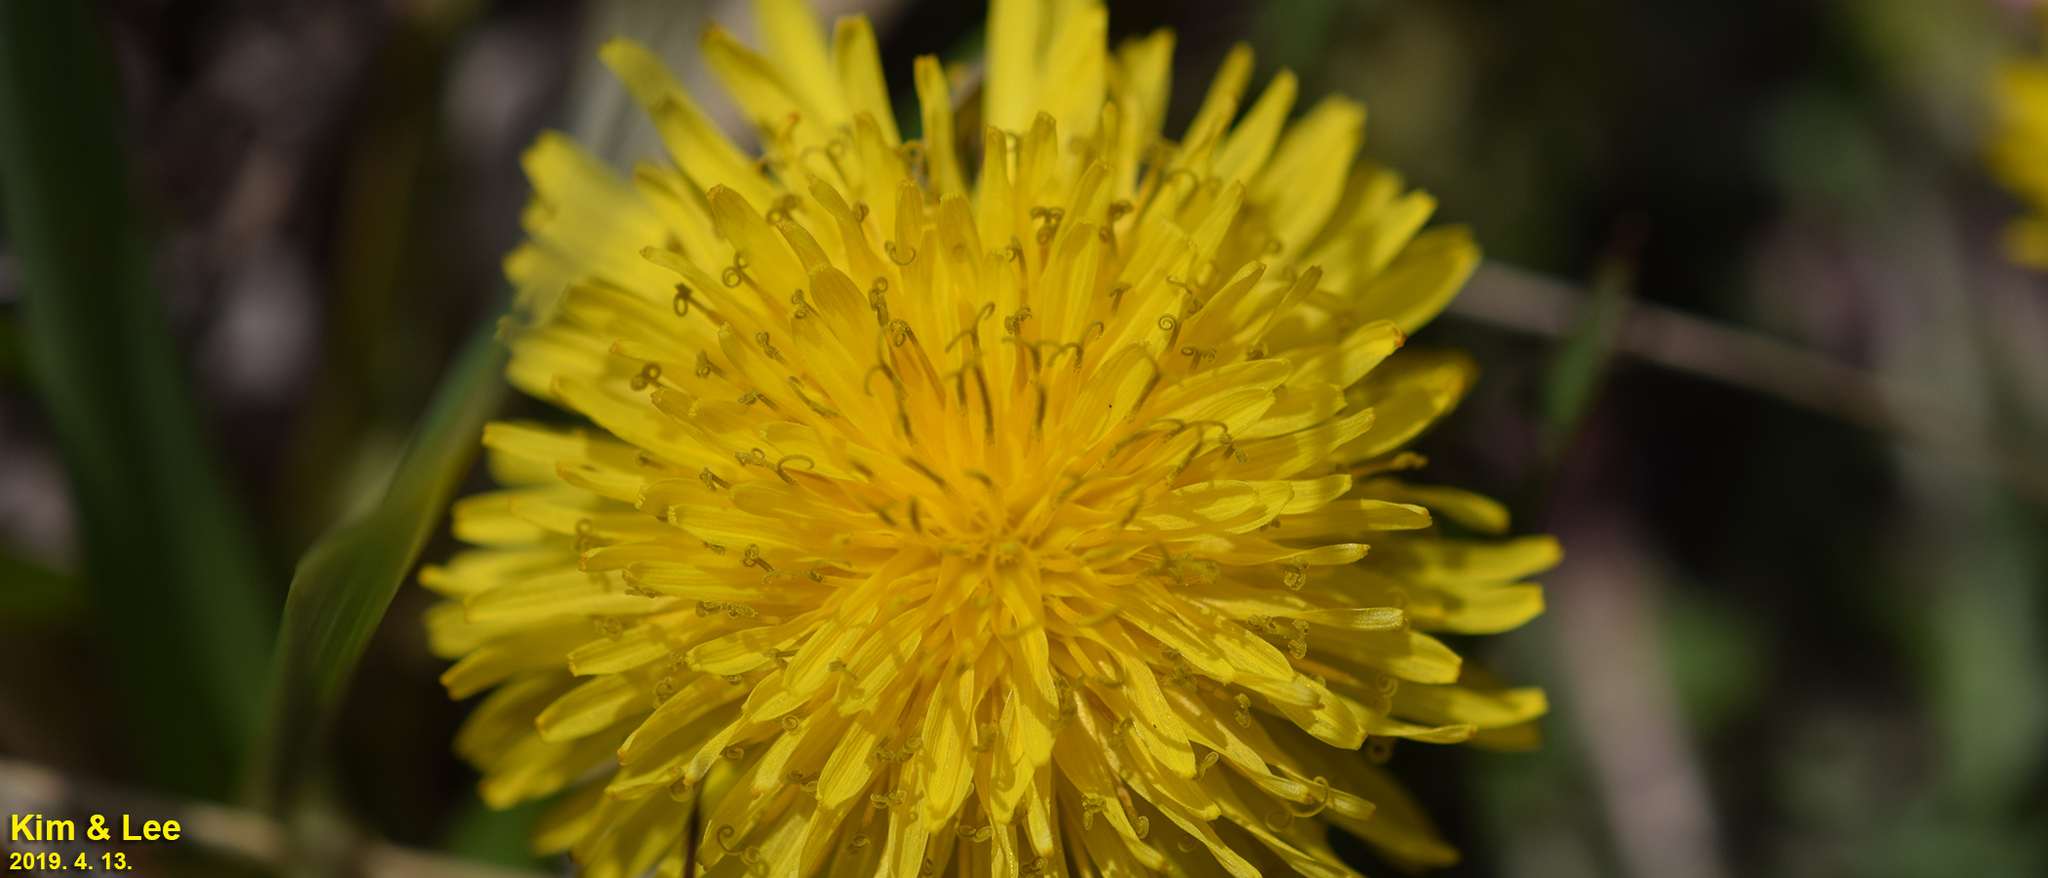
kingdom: Plantae
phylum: Tracheophyta
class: Magnoliopsida
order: Asterales
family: Asteraceae
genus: Taraxacum
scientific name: Taraxacum officinale
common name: Common dandelion
